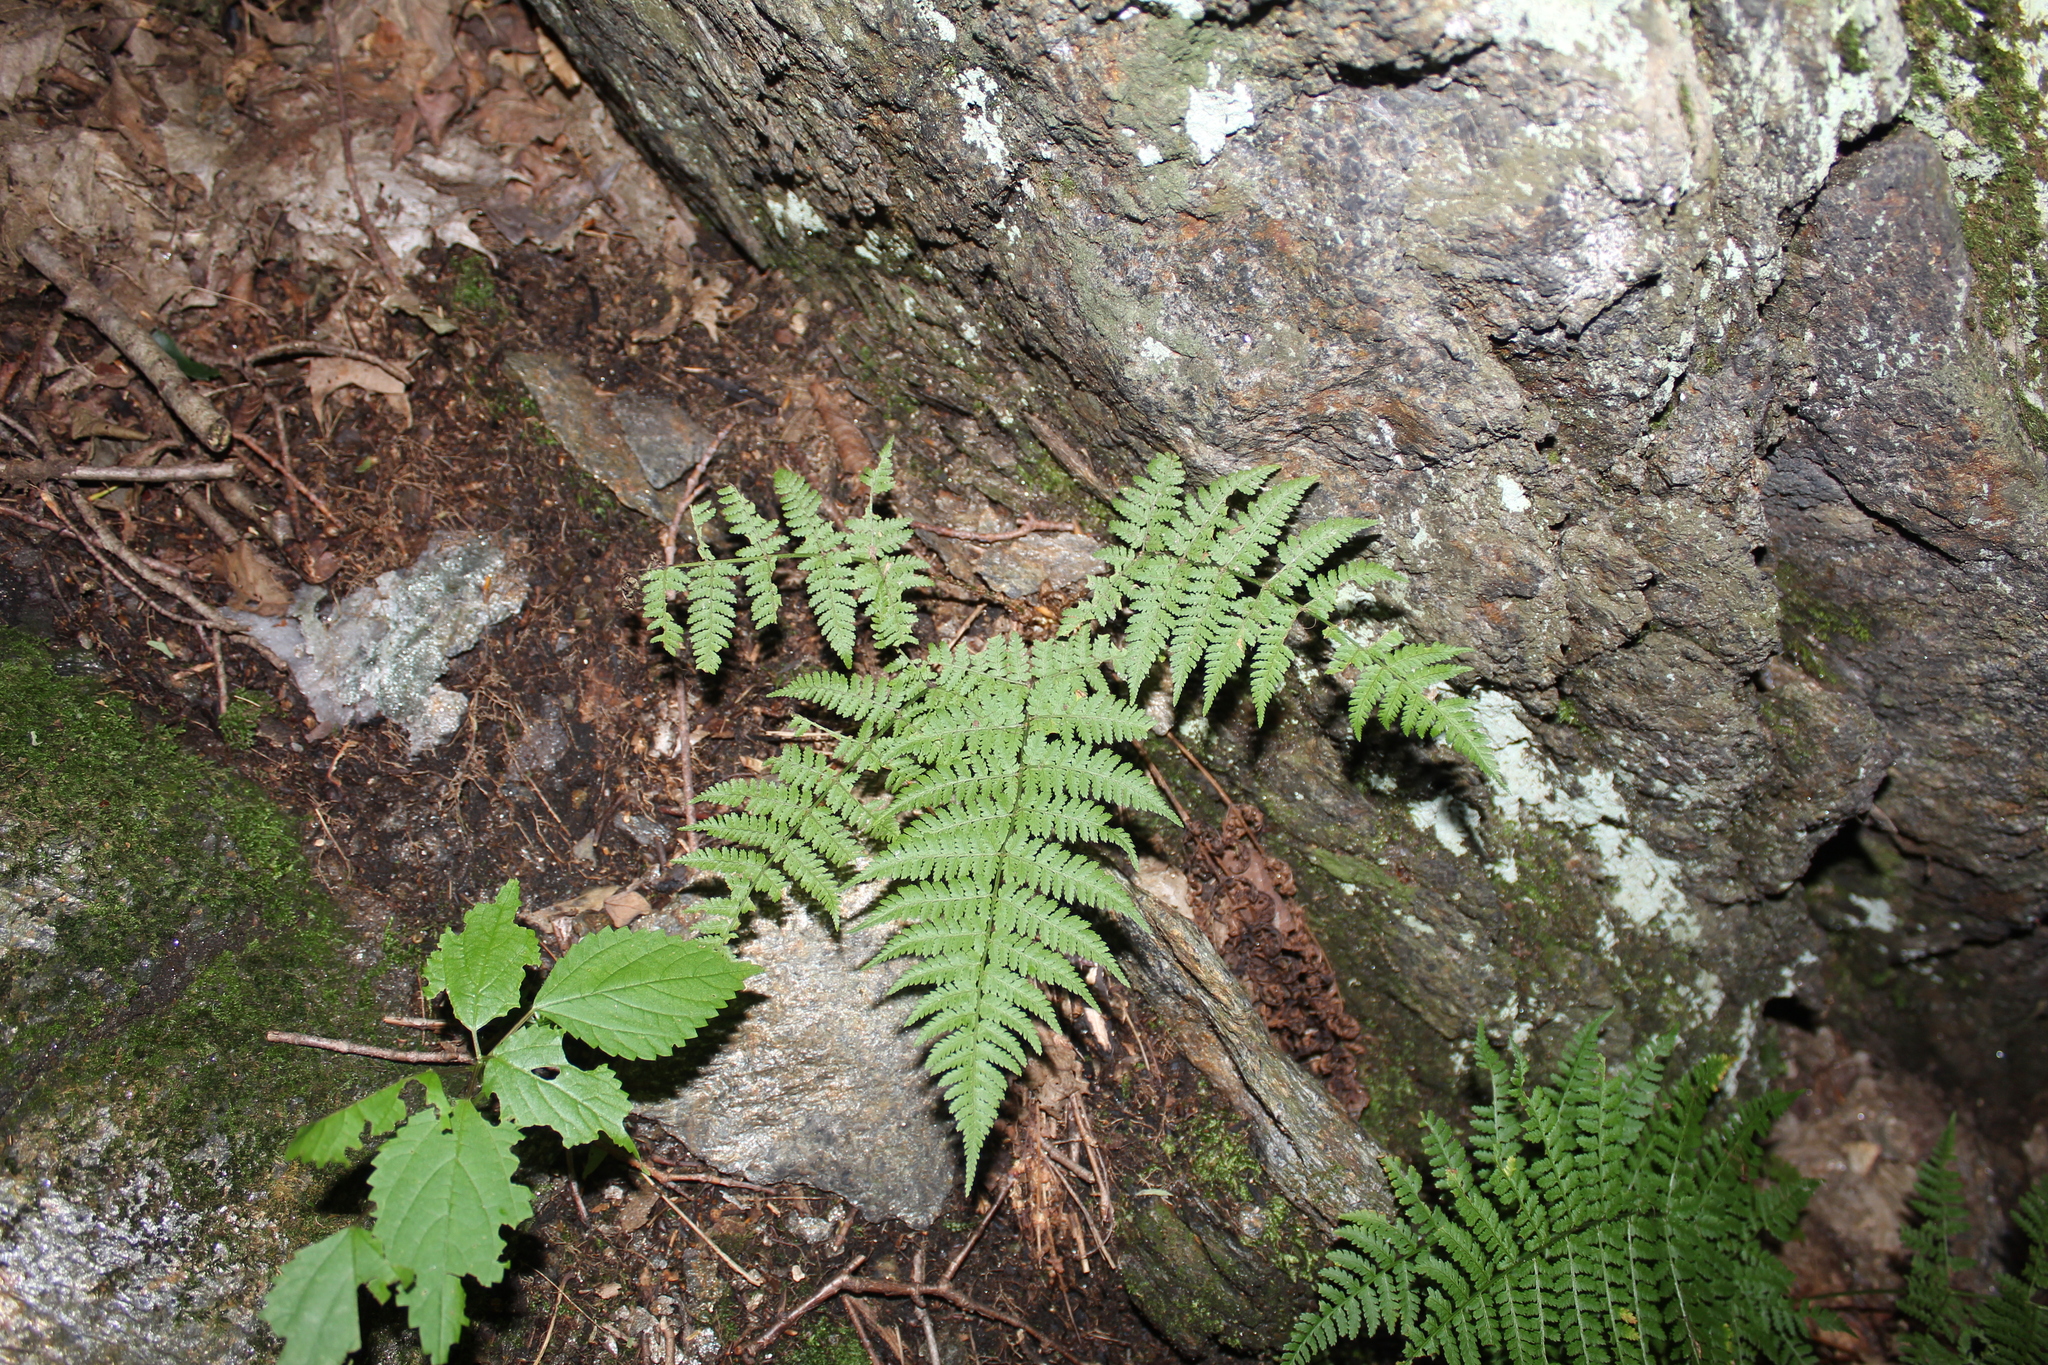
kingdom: Plantae
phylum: Tracheophyta
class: Polypodiopsida
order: Polypodiales
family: Dryopteridaceae
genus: Dryopteris
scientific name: Dryopteris intermedia
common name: Evergreen wood fern
